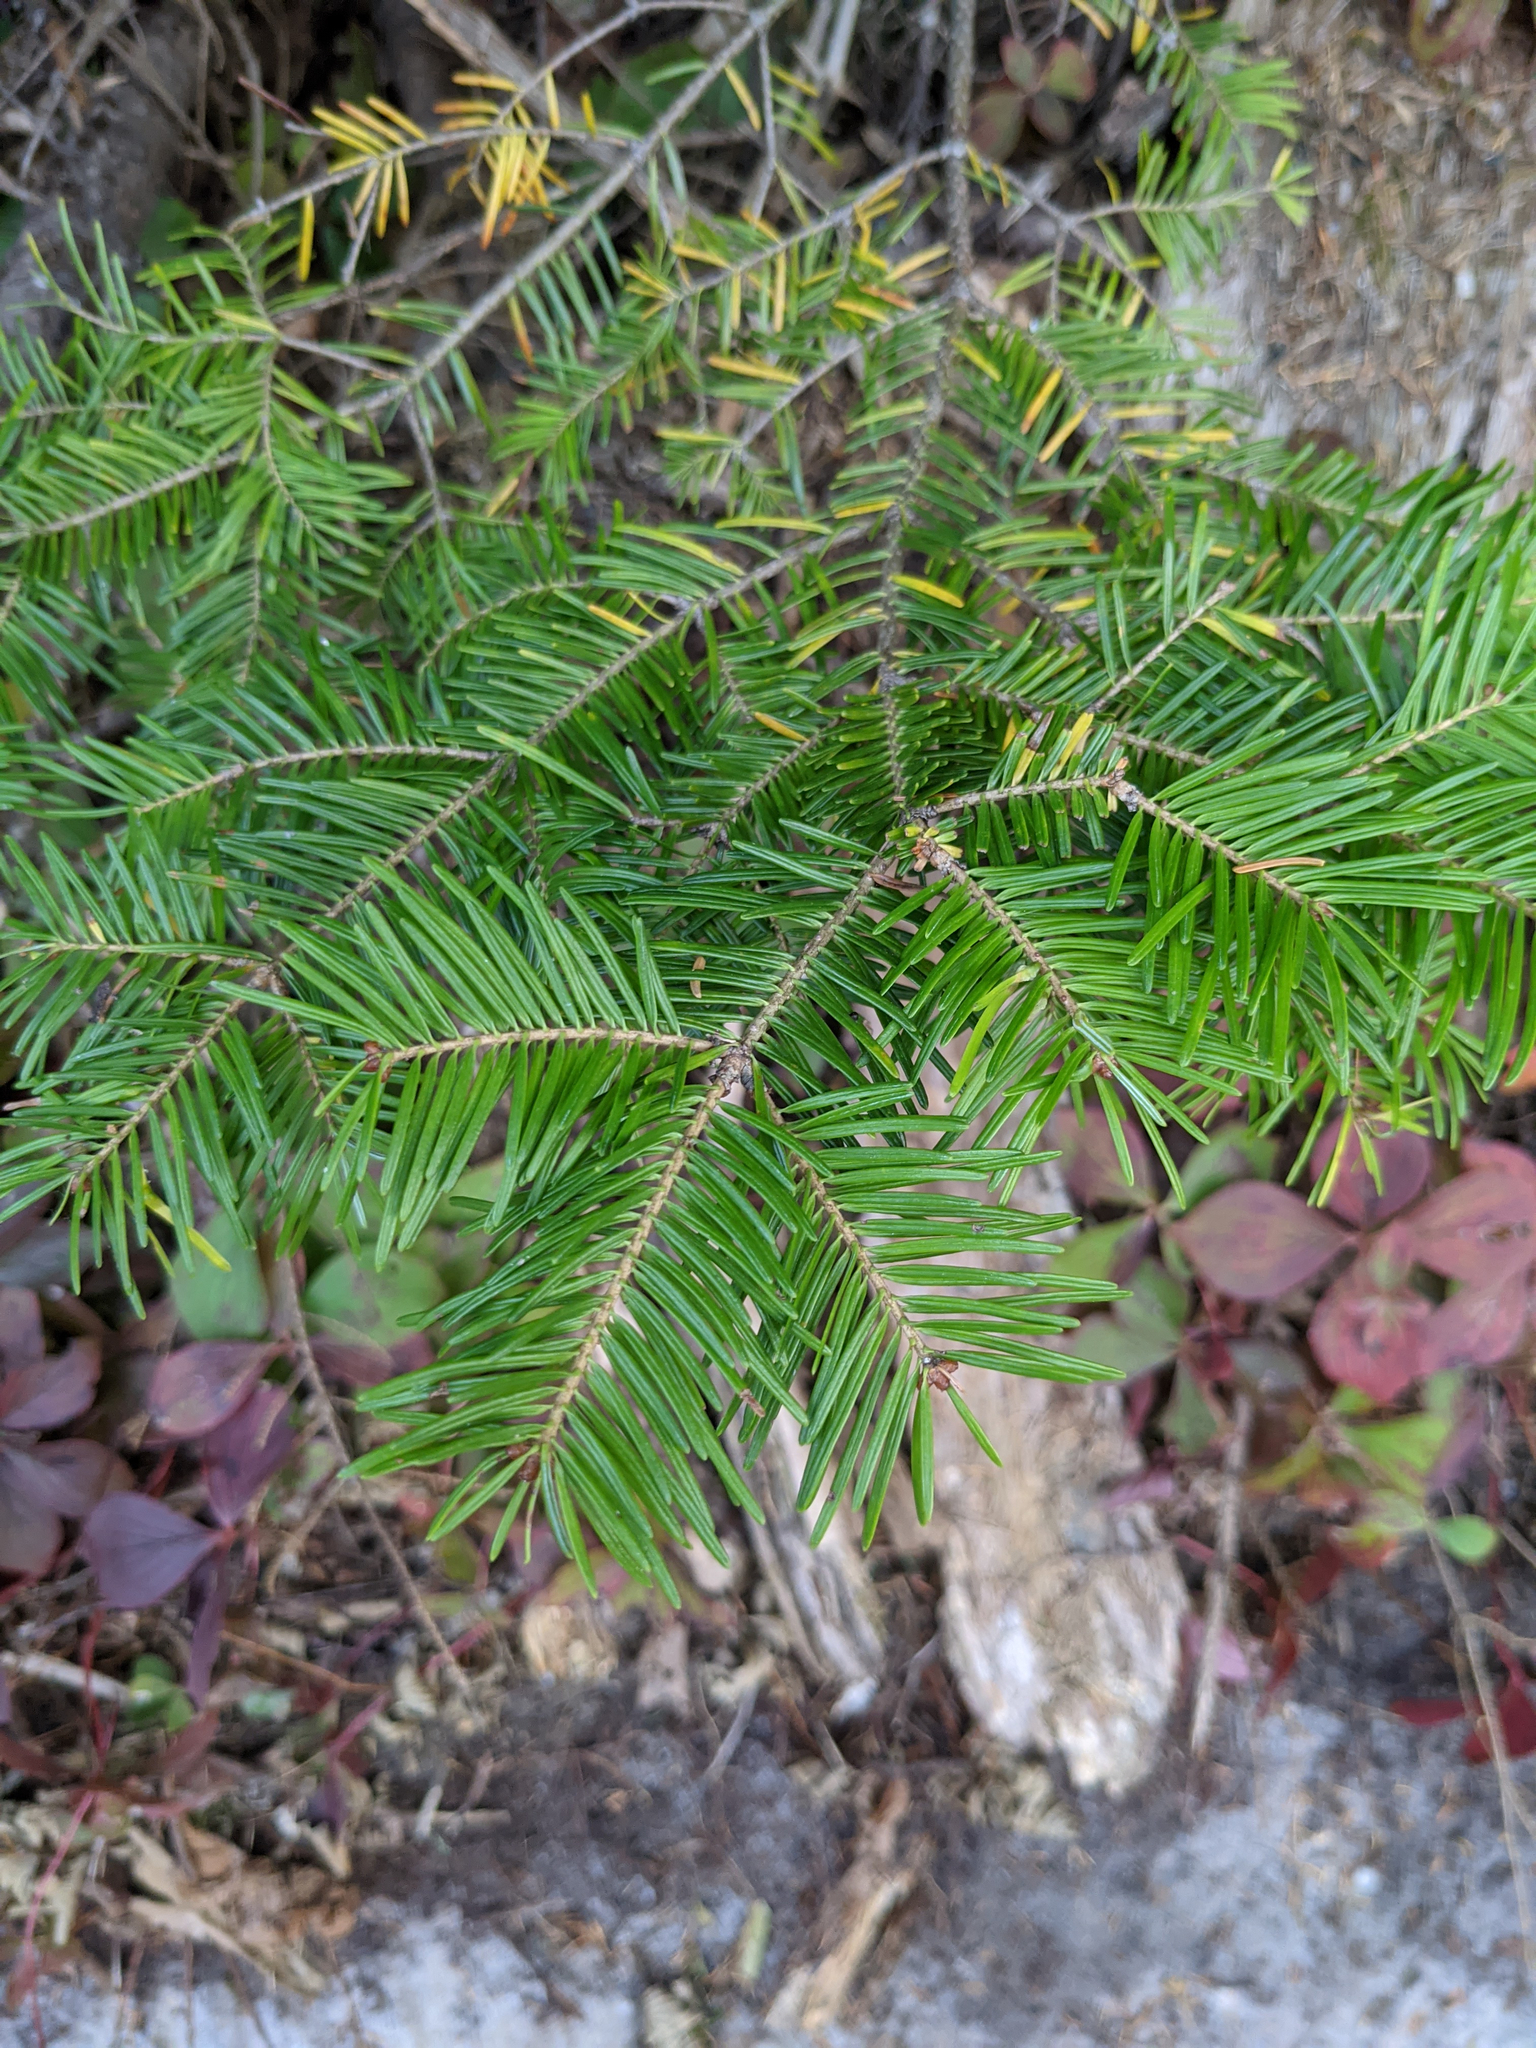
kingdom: Plantae
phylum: Tracheophyta
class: Pinopsida
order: Pinales
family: Pinaceae
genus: Abies
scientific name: Abies balsamea
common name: Balsam fir
